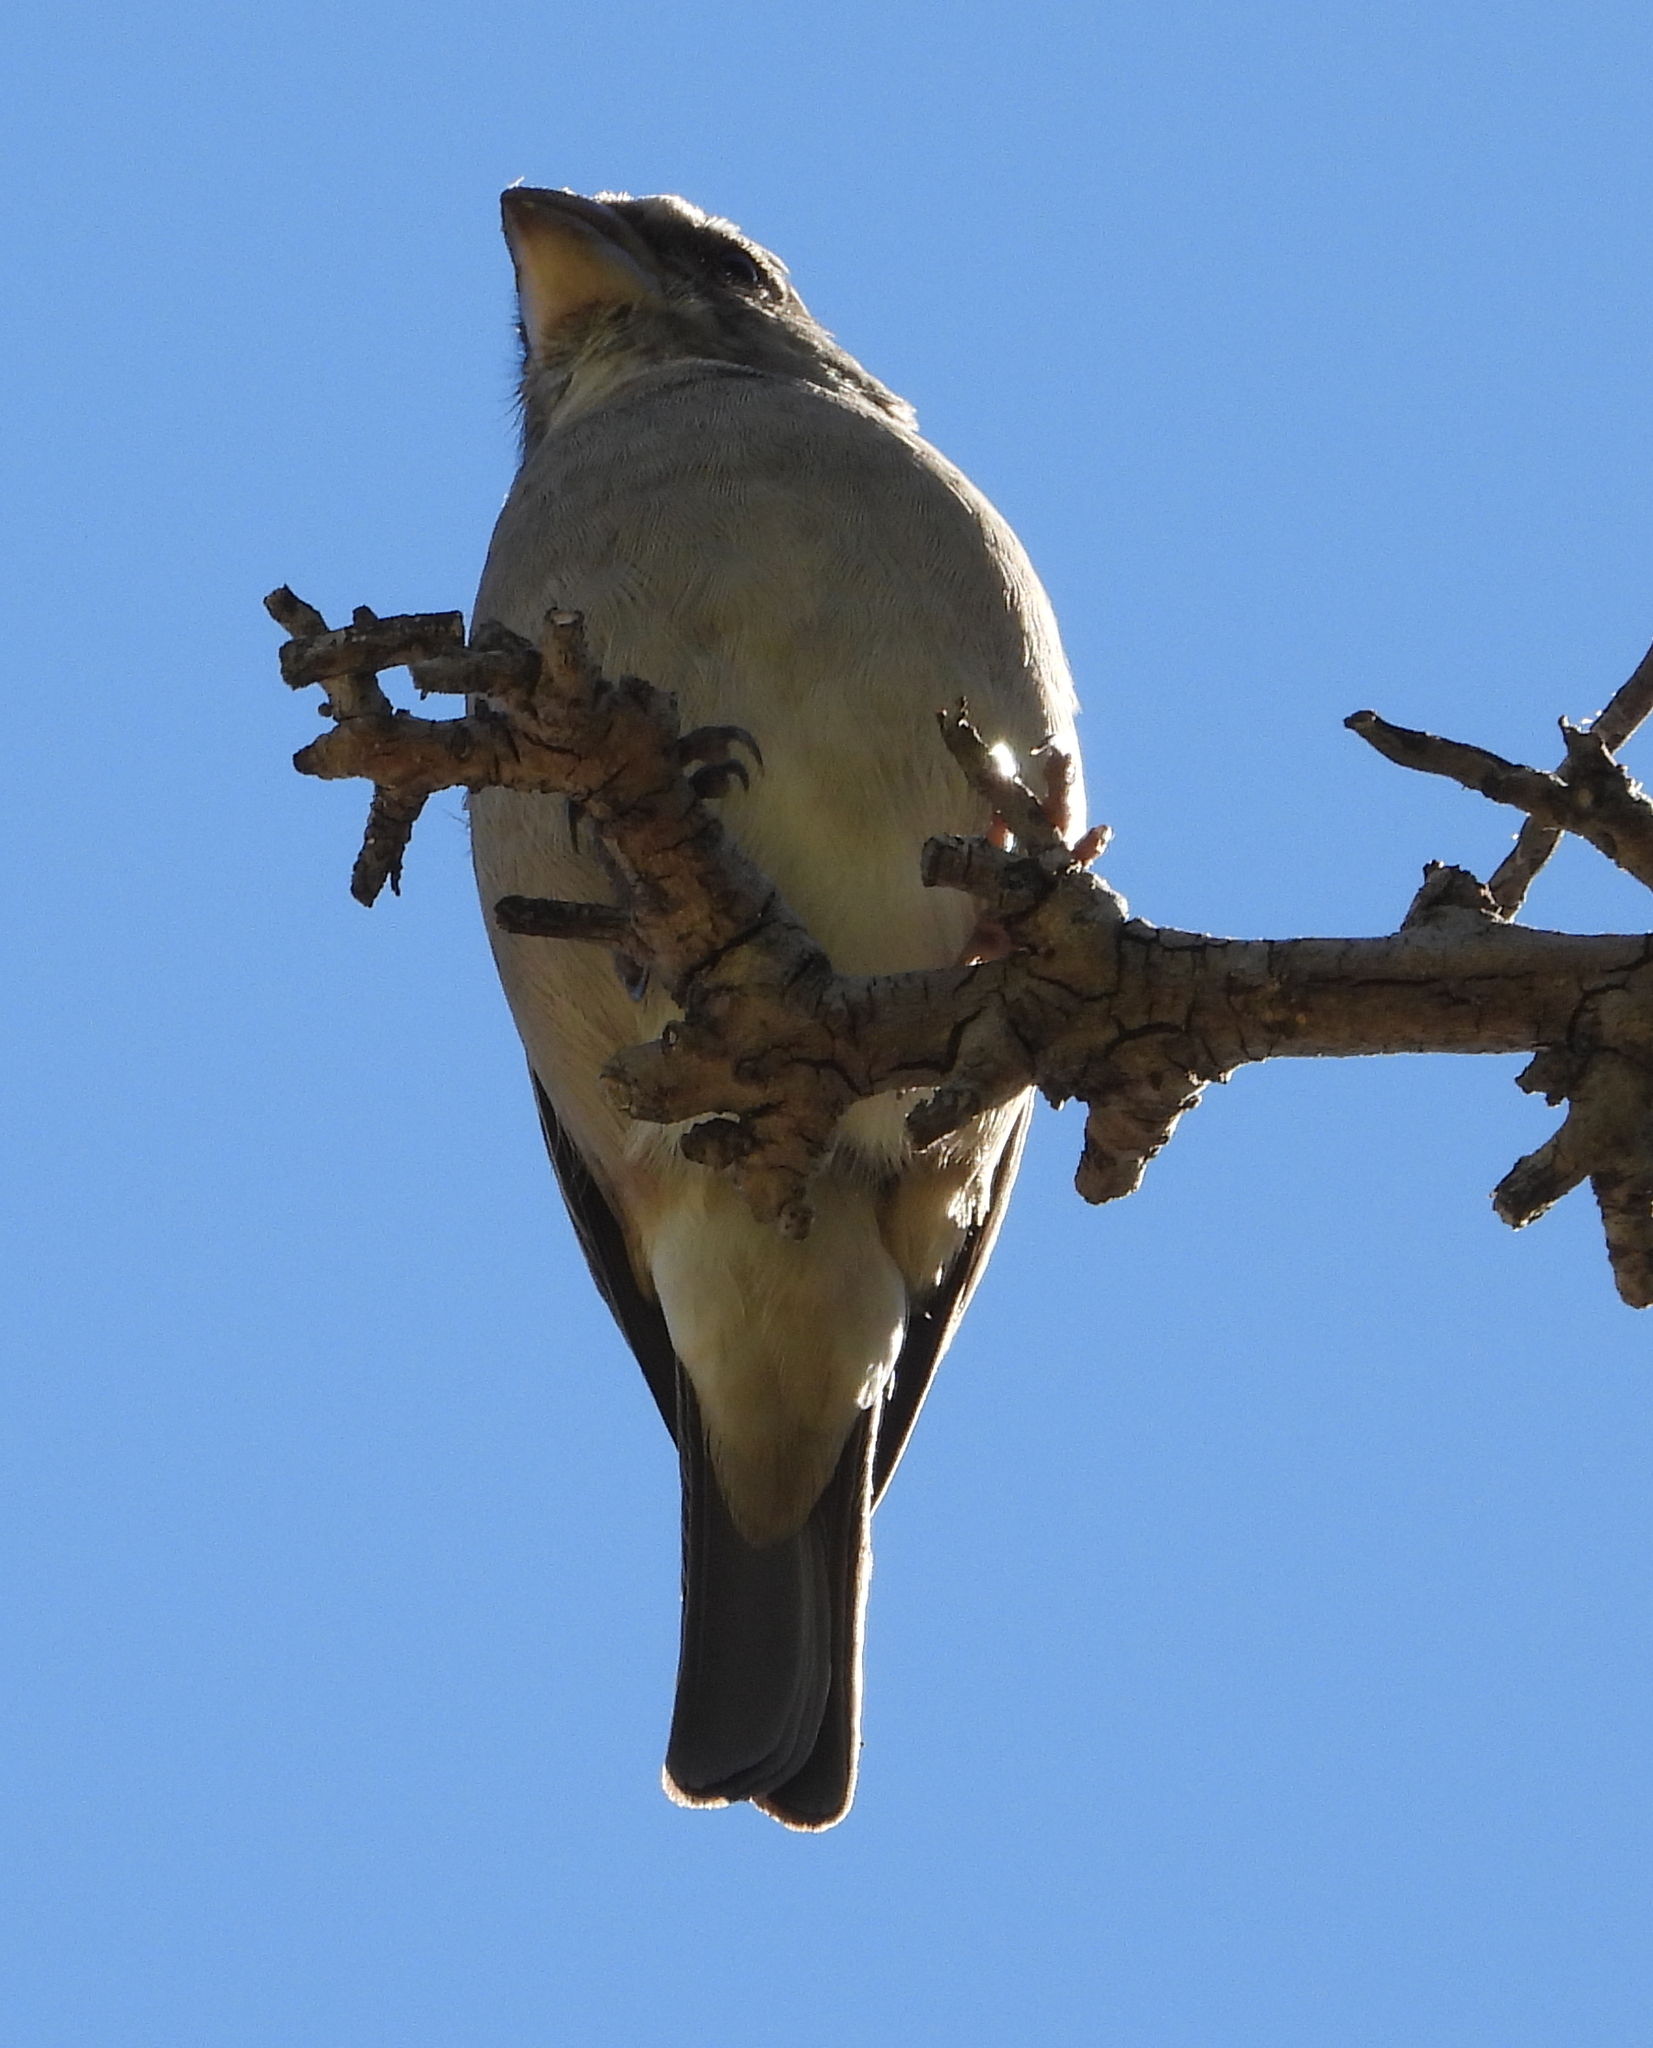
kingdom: Animalia
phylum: Chordata
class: Aves
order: Passeriformes
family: Fringillidae
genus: Crithagra
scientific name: Crithagra albogularis
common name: White-throated canary
